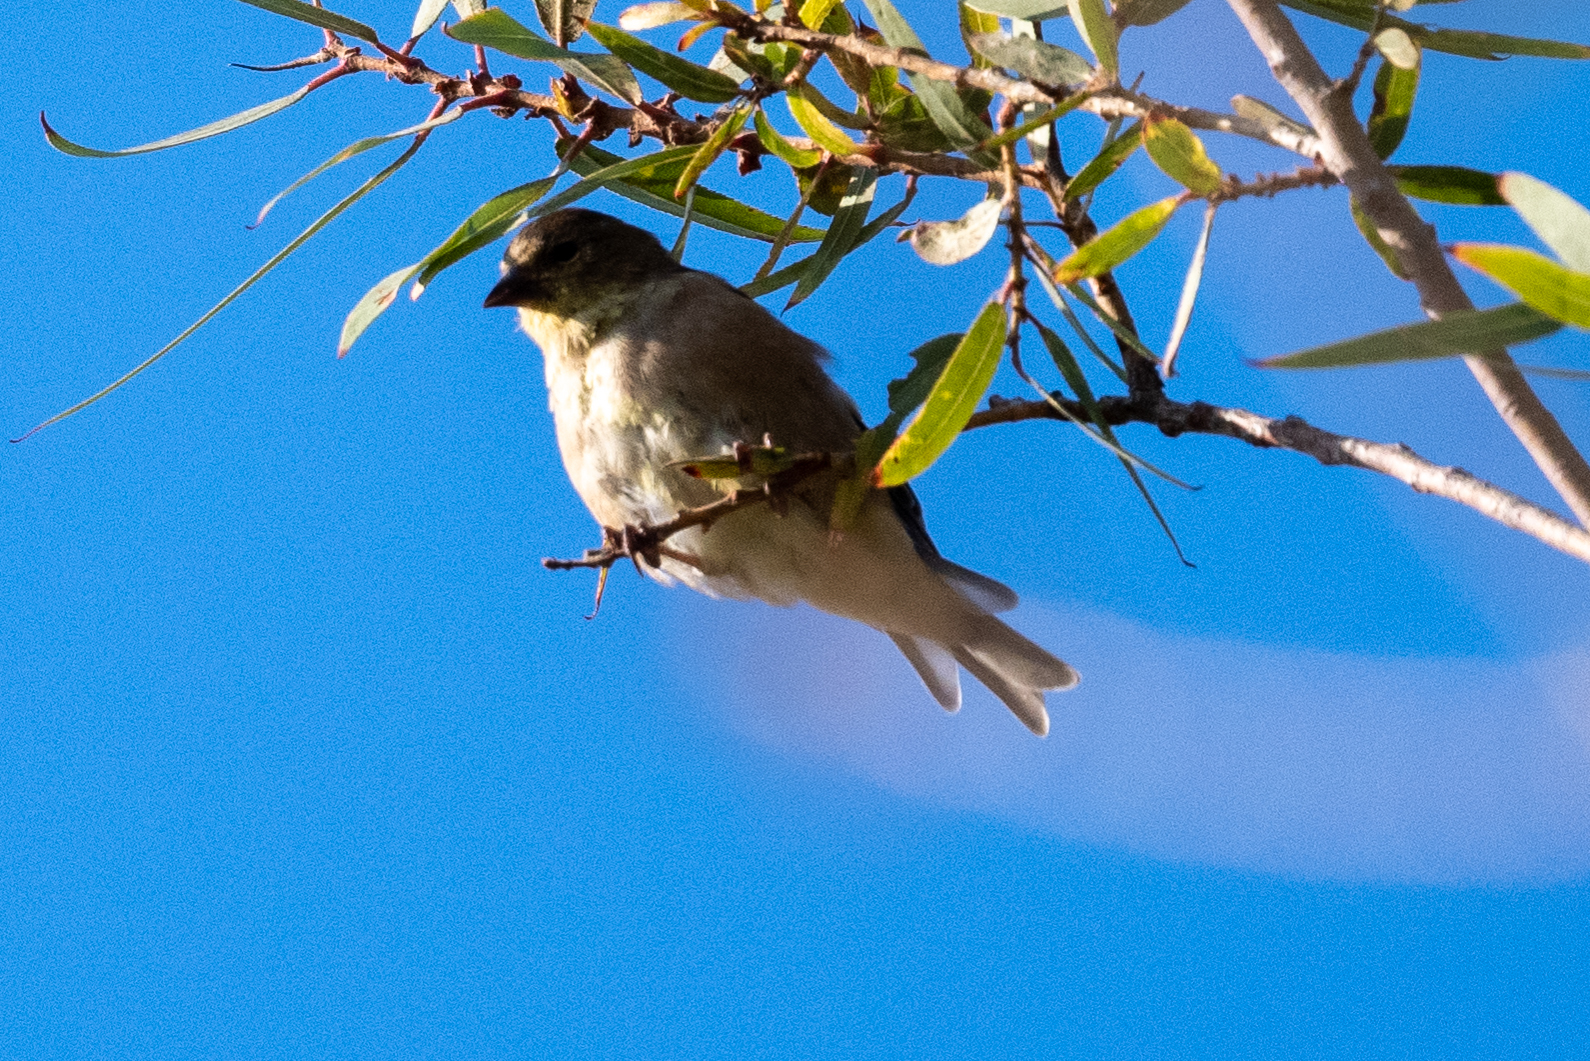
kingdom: Animalia
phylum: Chordata
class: Aves
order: Passeriformes
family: Fringillidae
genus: Spinus
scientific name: Spinus tristis
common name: American goldfinch
